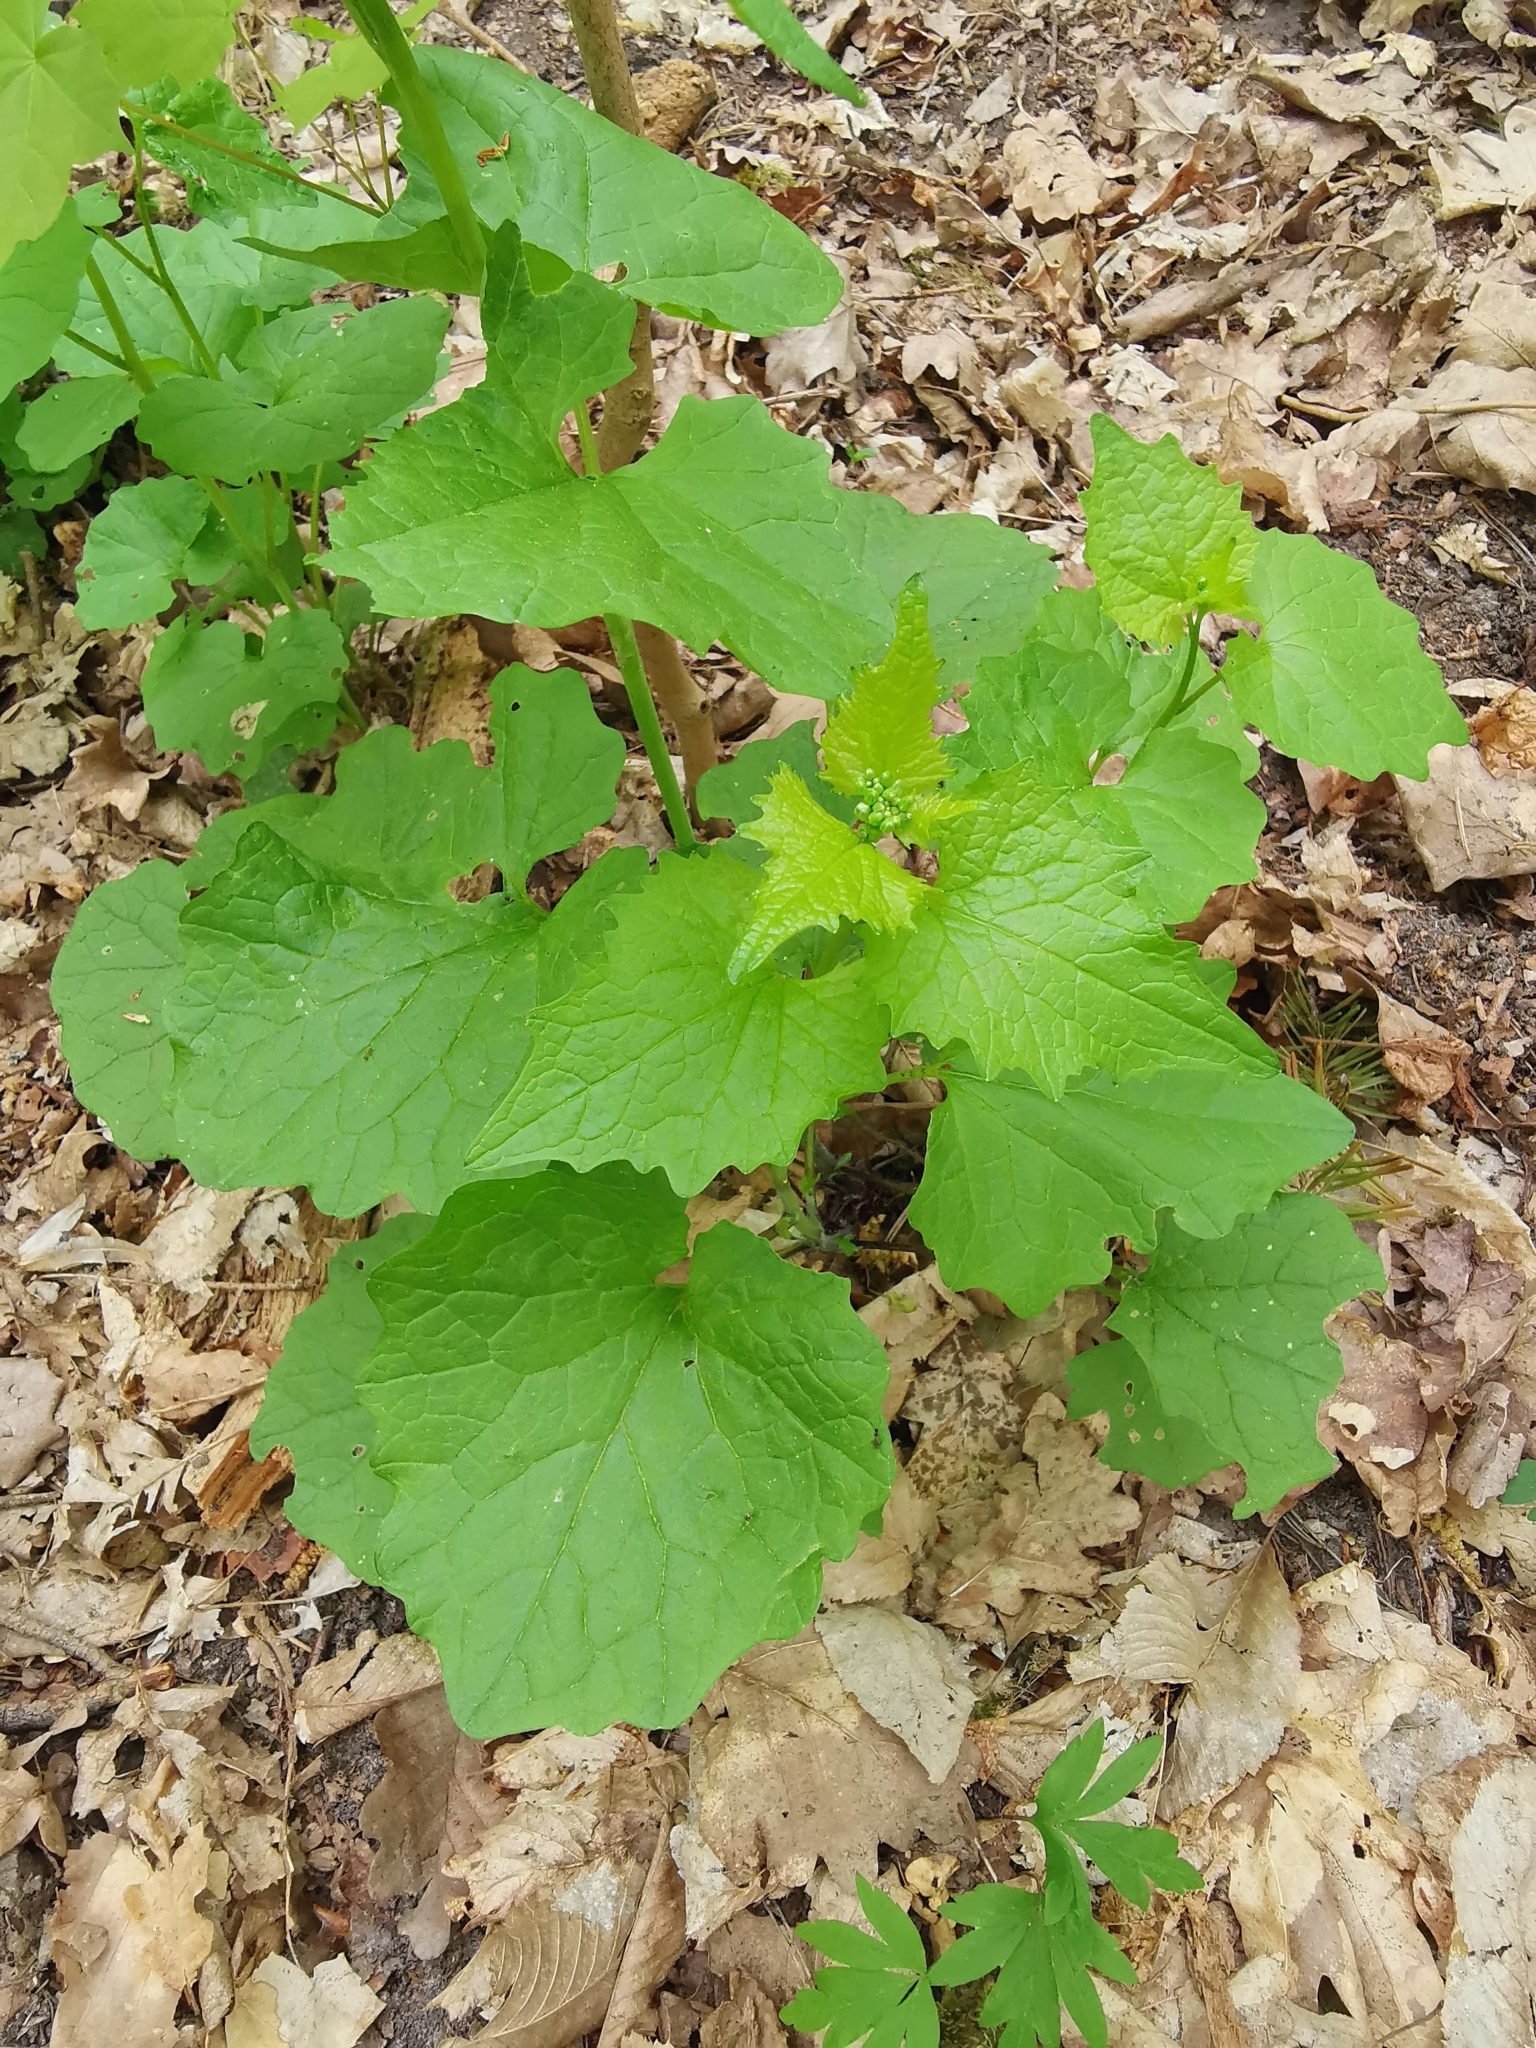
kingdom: Plantae
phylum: Tracheophyta
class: Magnoliopsida
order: Brassicales
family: Brassicaceae
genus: Alliaria
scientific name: Alliaria petiolata
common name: Garlic mustard
